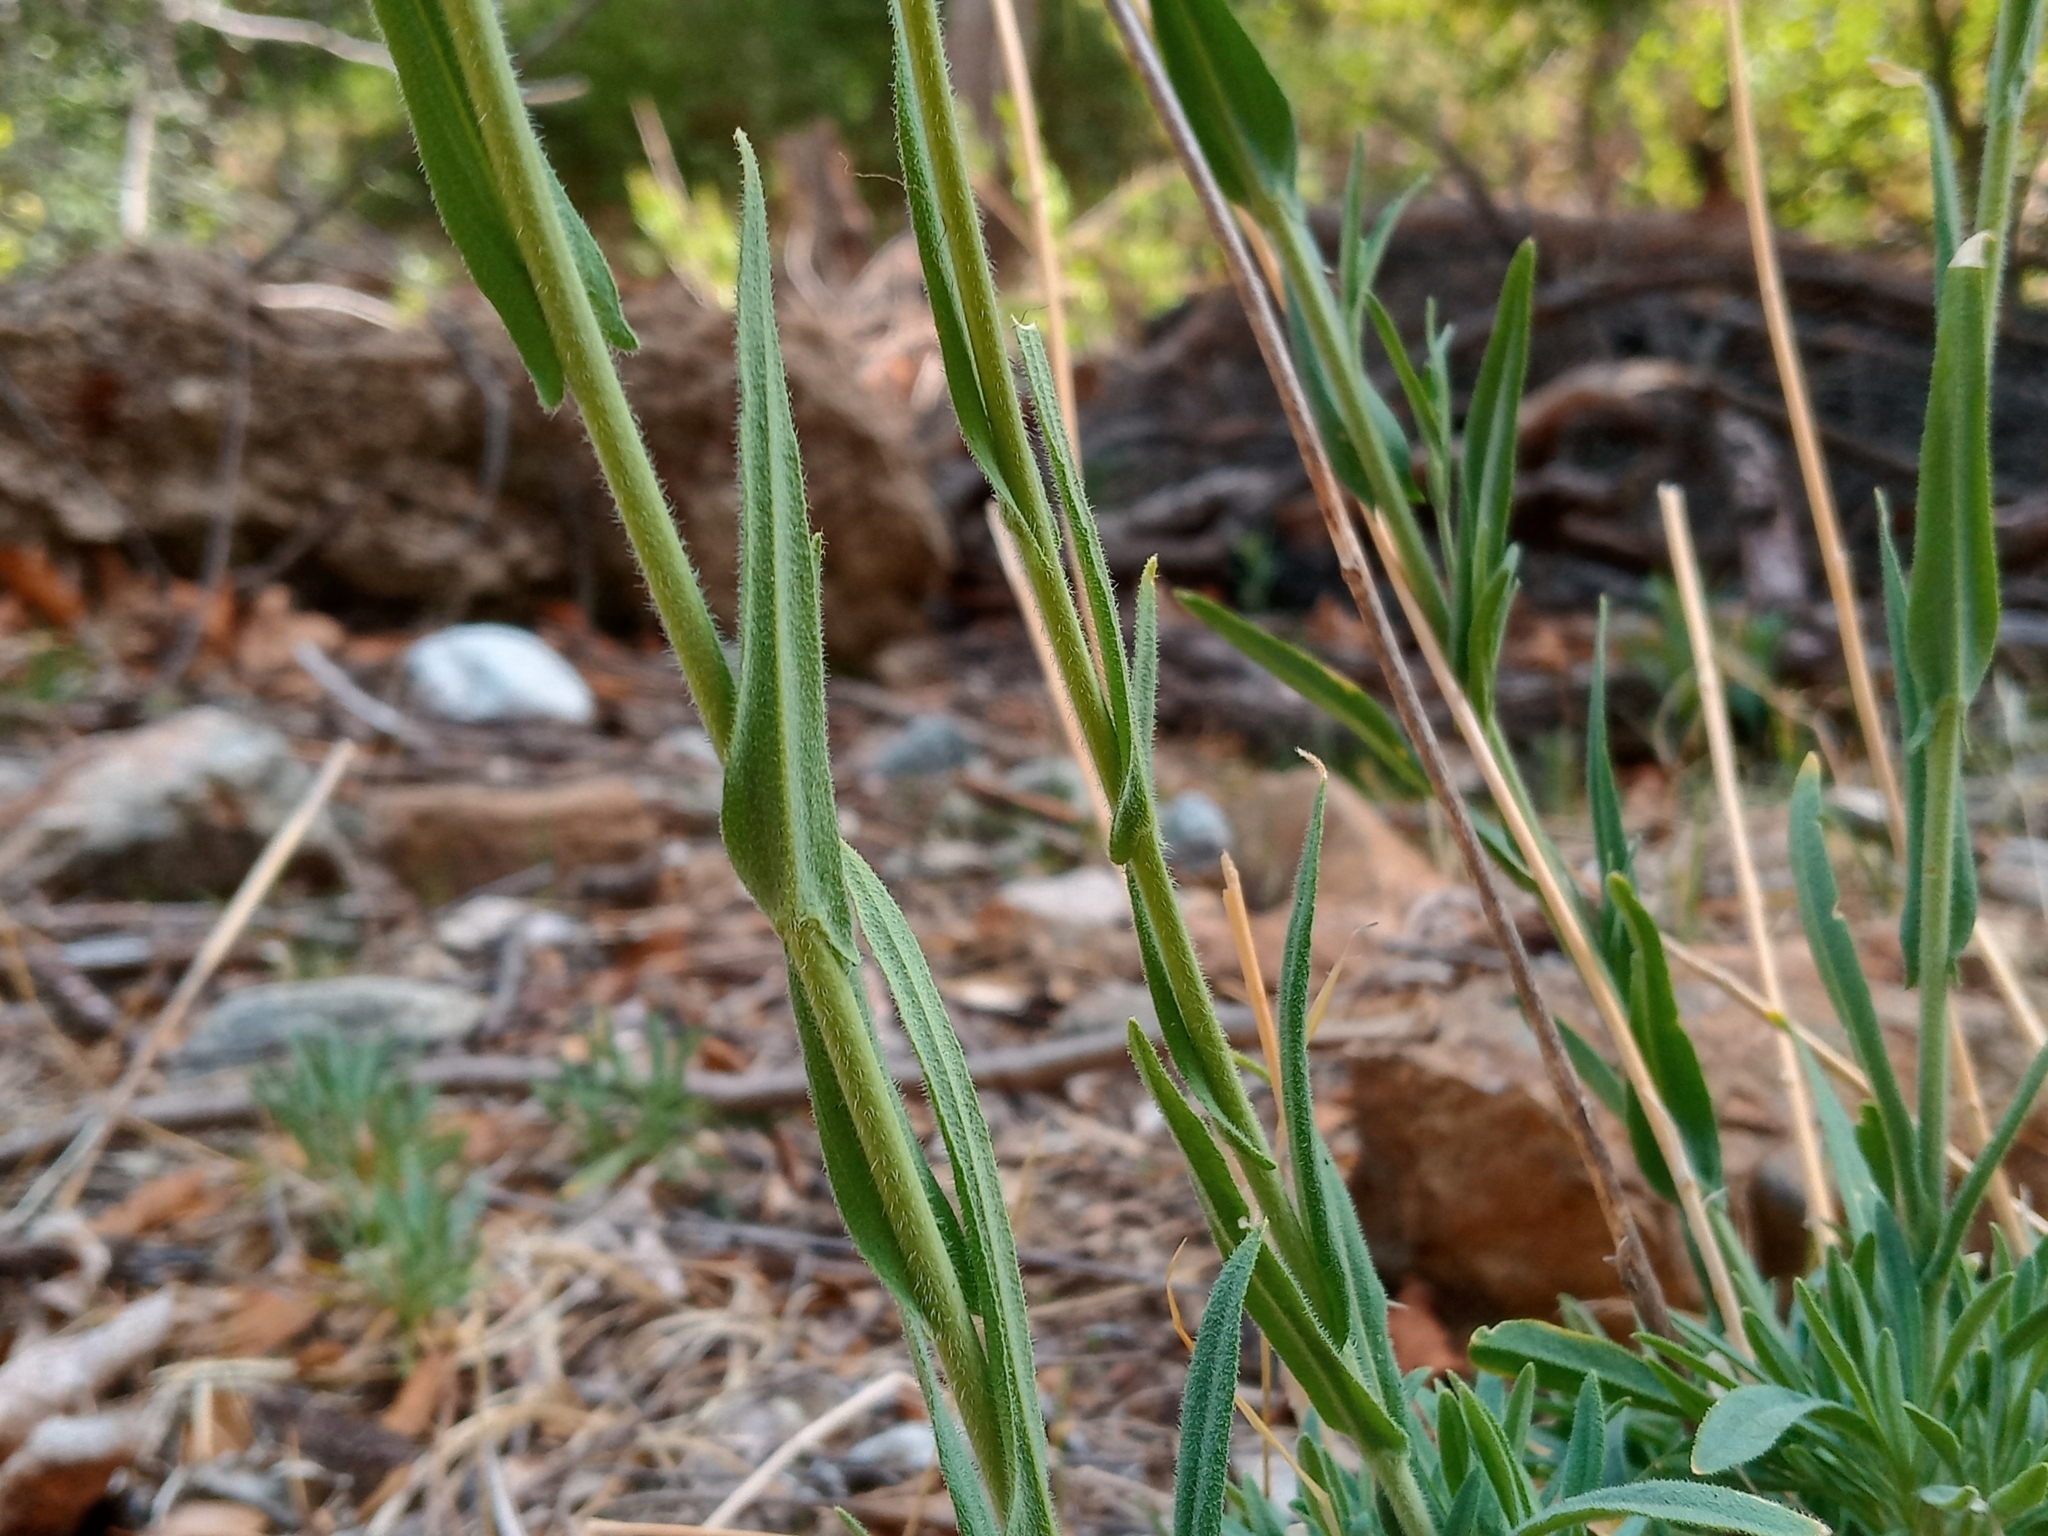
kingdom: Plantae
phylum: Tracheophyta
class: Magnoliopsida
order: Brassicales
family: Brassicaceae
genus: Boechera
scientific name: Boechera arcuata
